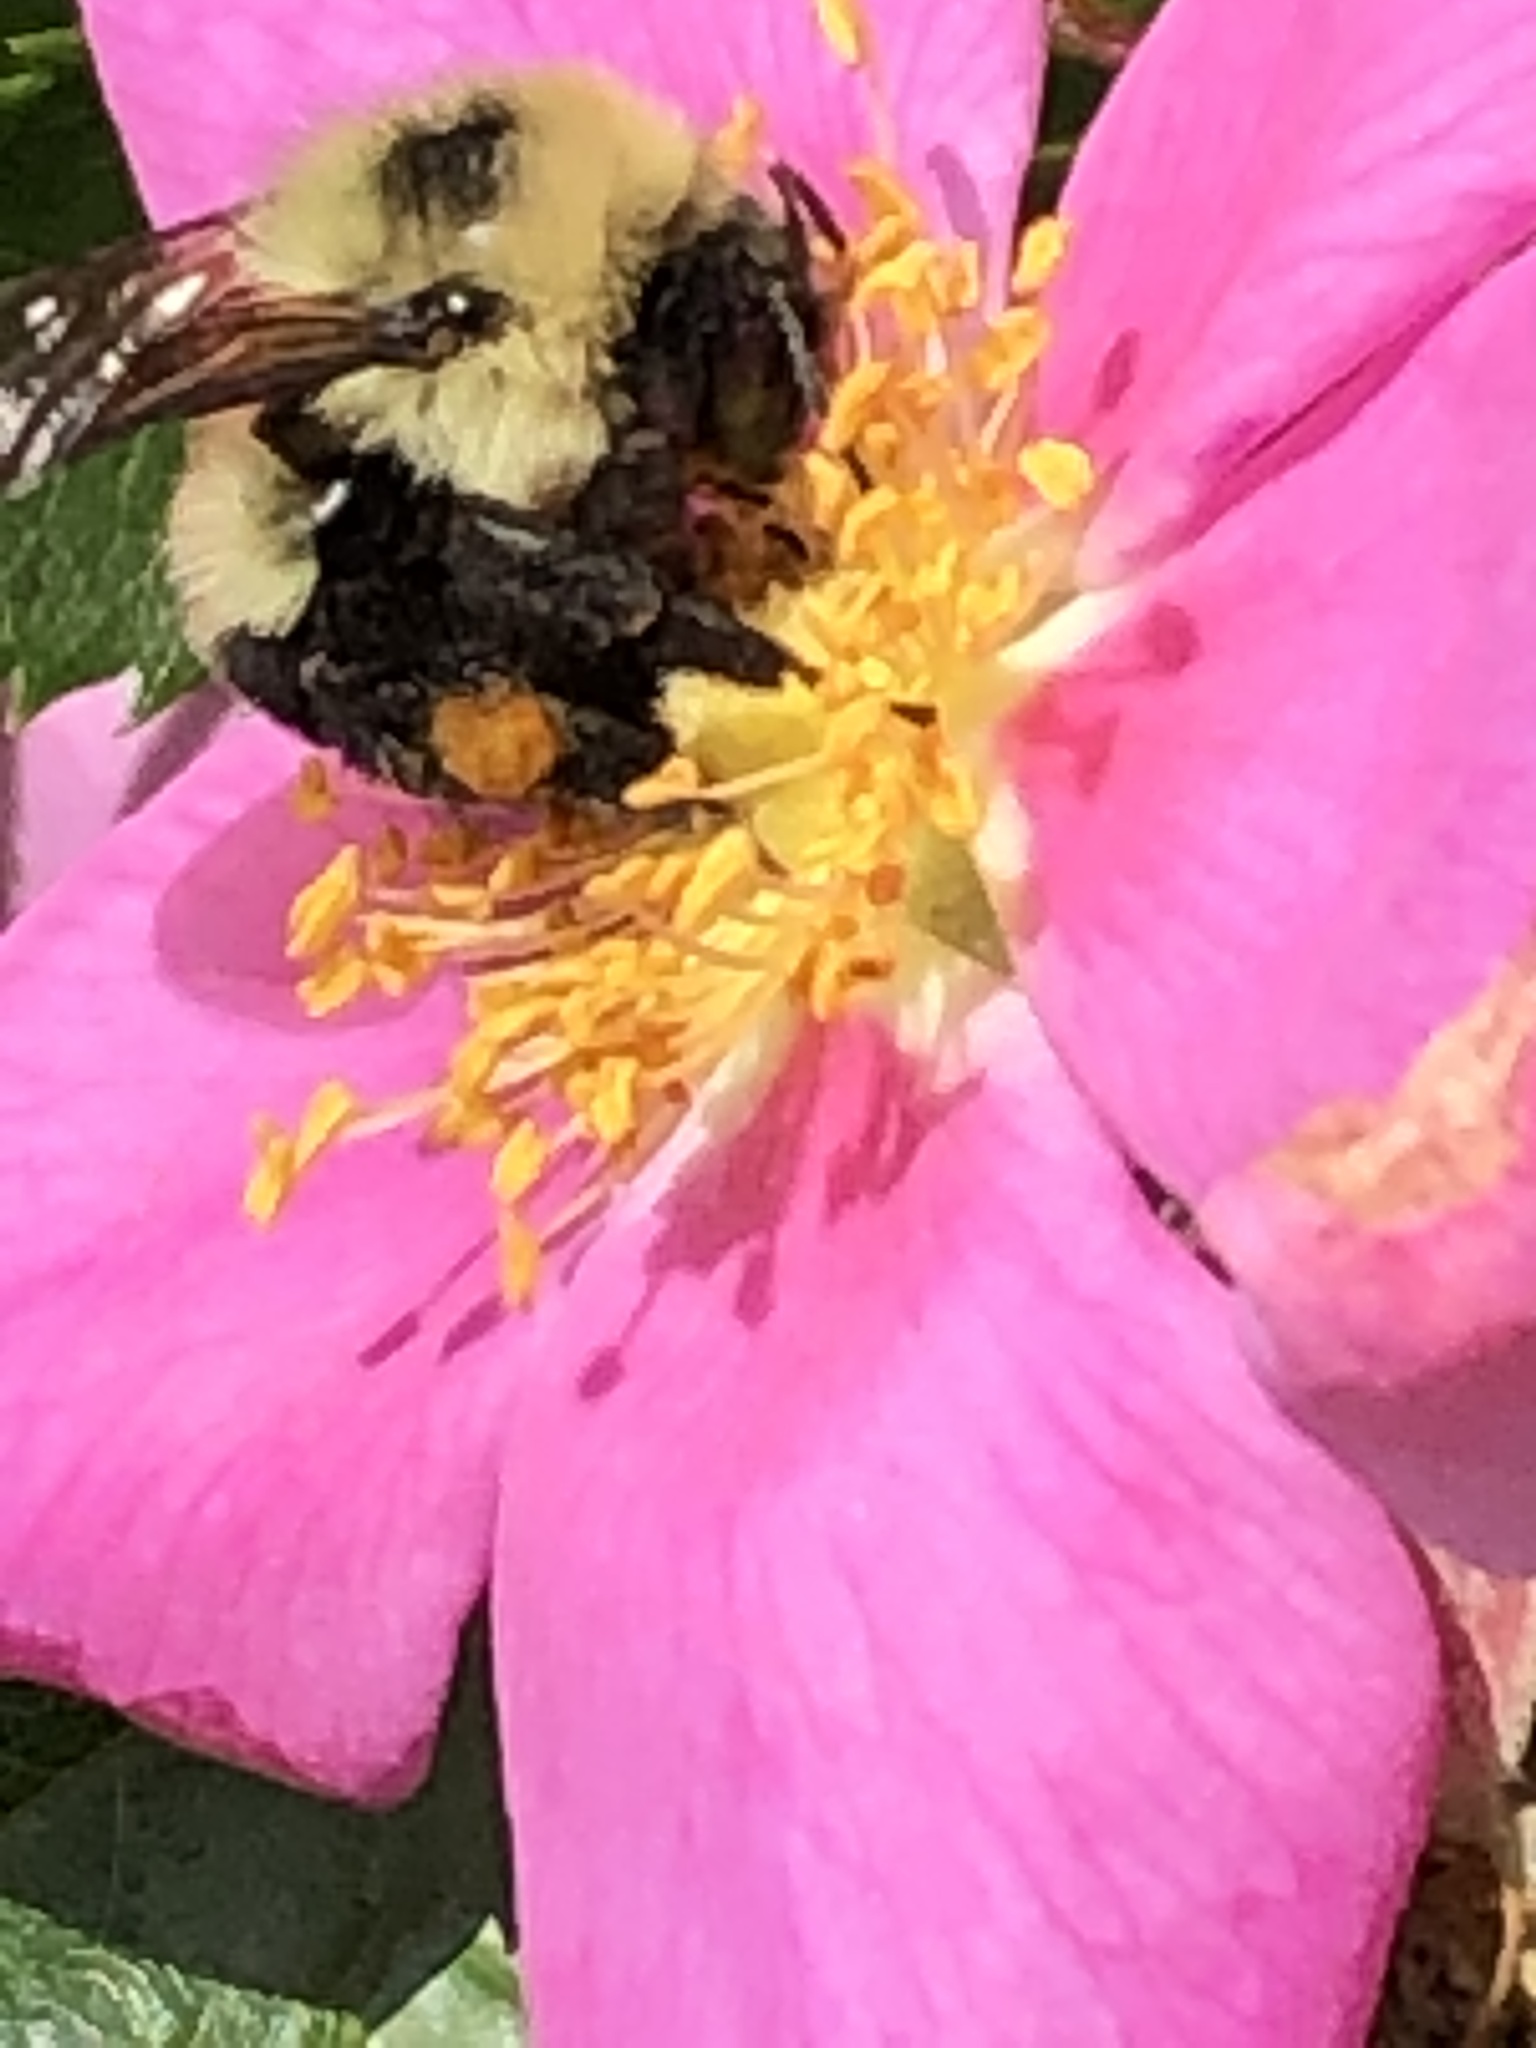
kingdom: Animalia
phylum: Arthropoda
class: Insecta
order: Hymenoptera
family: Apidae
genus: Bombus
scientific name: Bombus bimaculatus
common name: Two-spotted bumble bee
